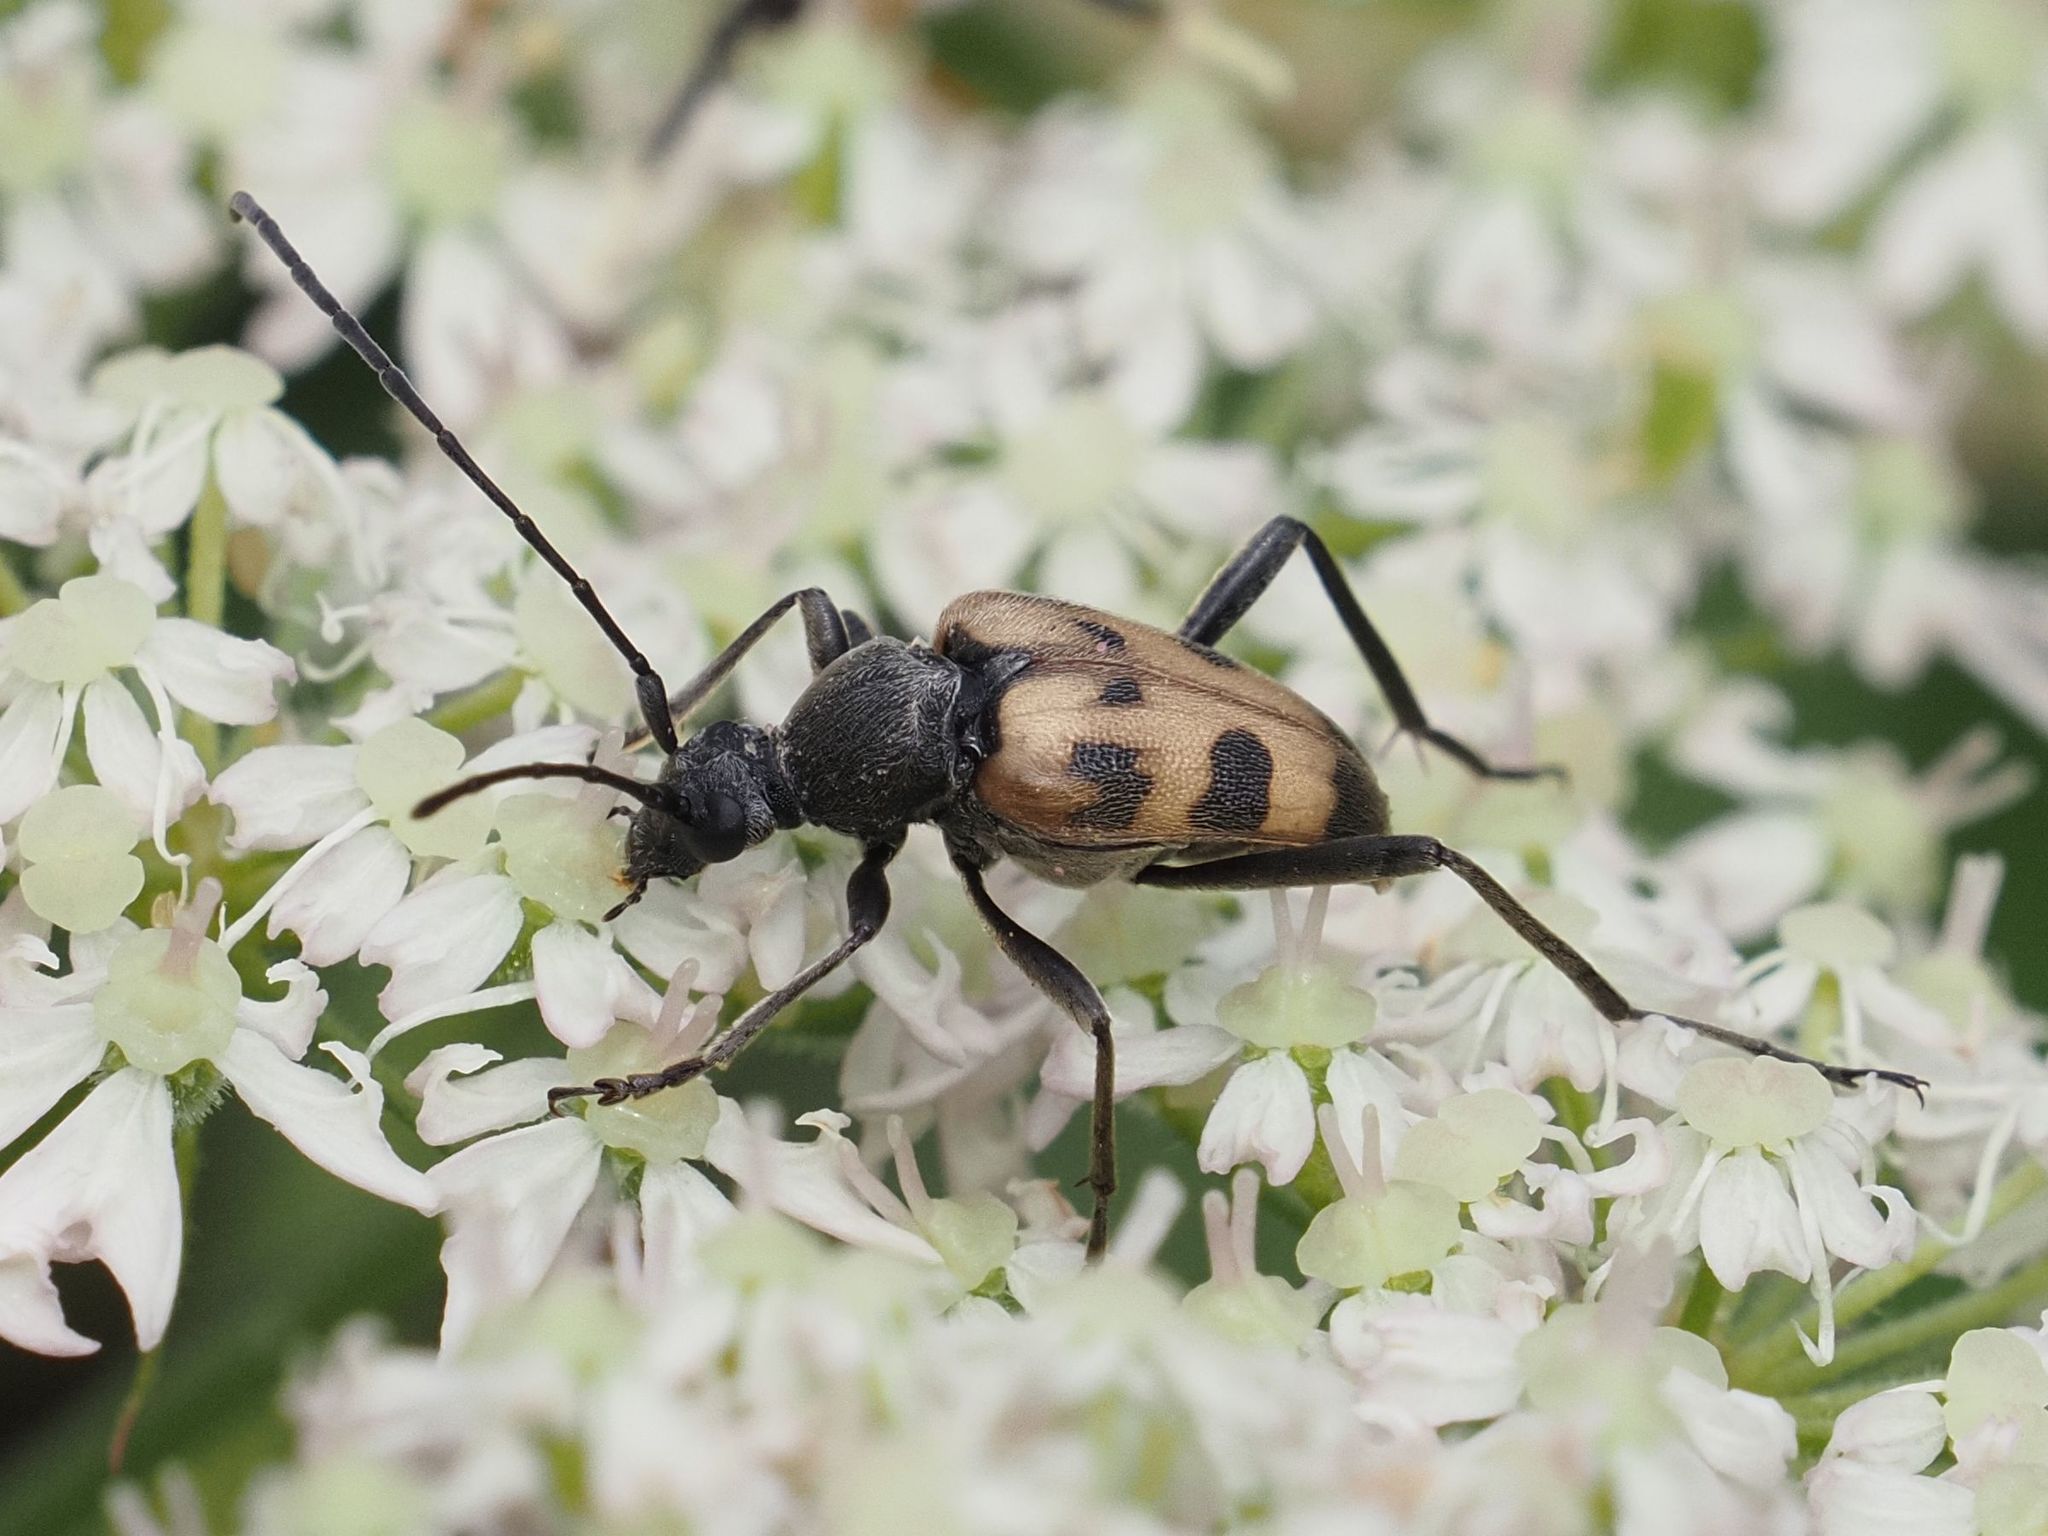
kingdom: Animalia
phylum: Arthropoda
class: Insecta
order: Coleoptera
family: Cerambycidae
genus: Pachytodes
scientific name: Pachytodes cerambyciformis
